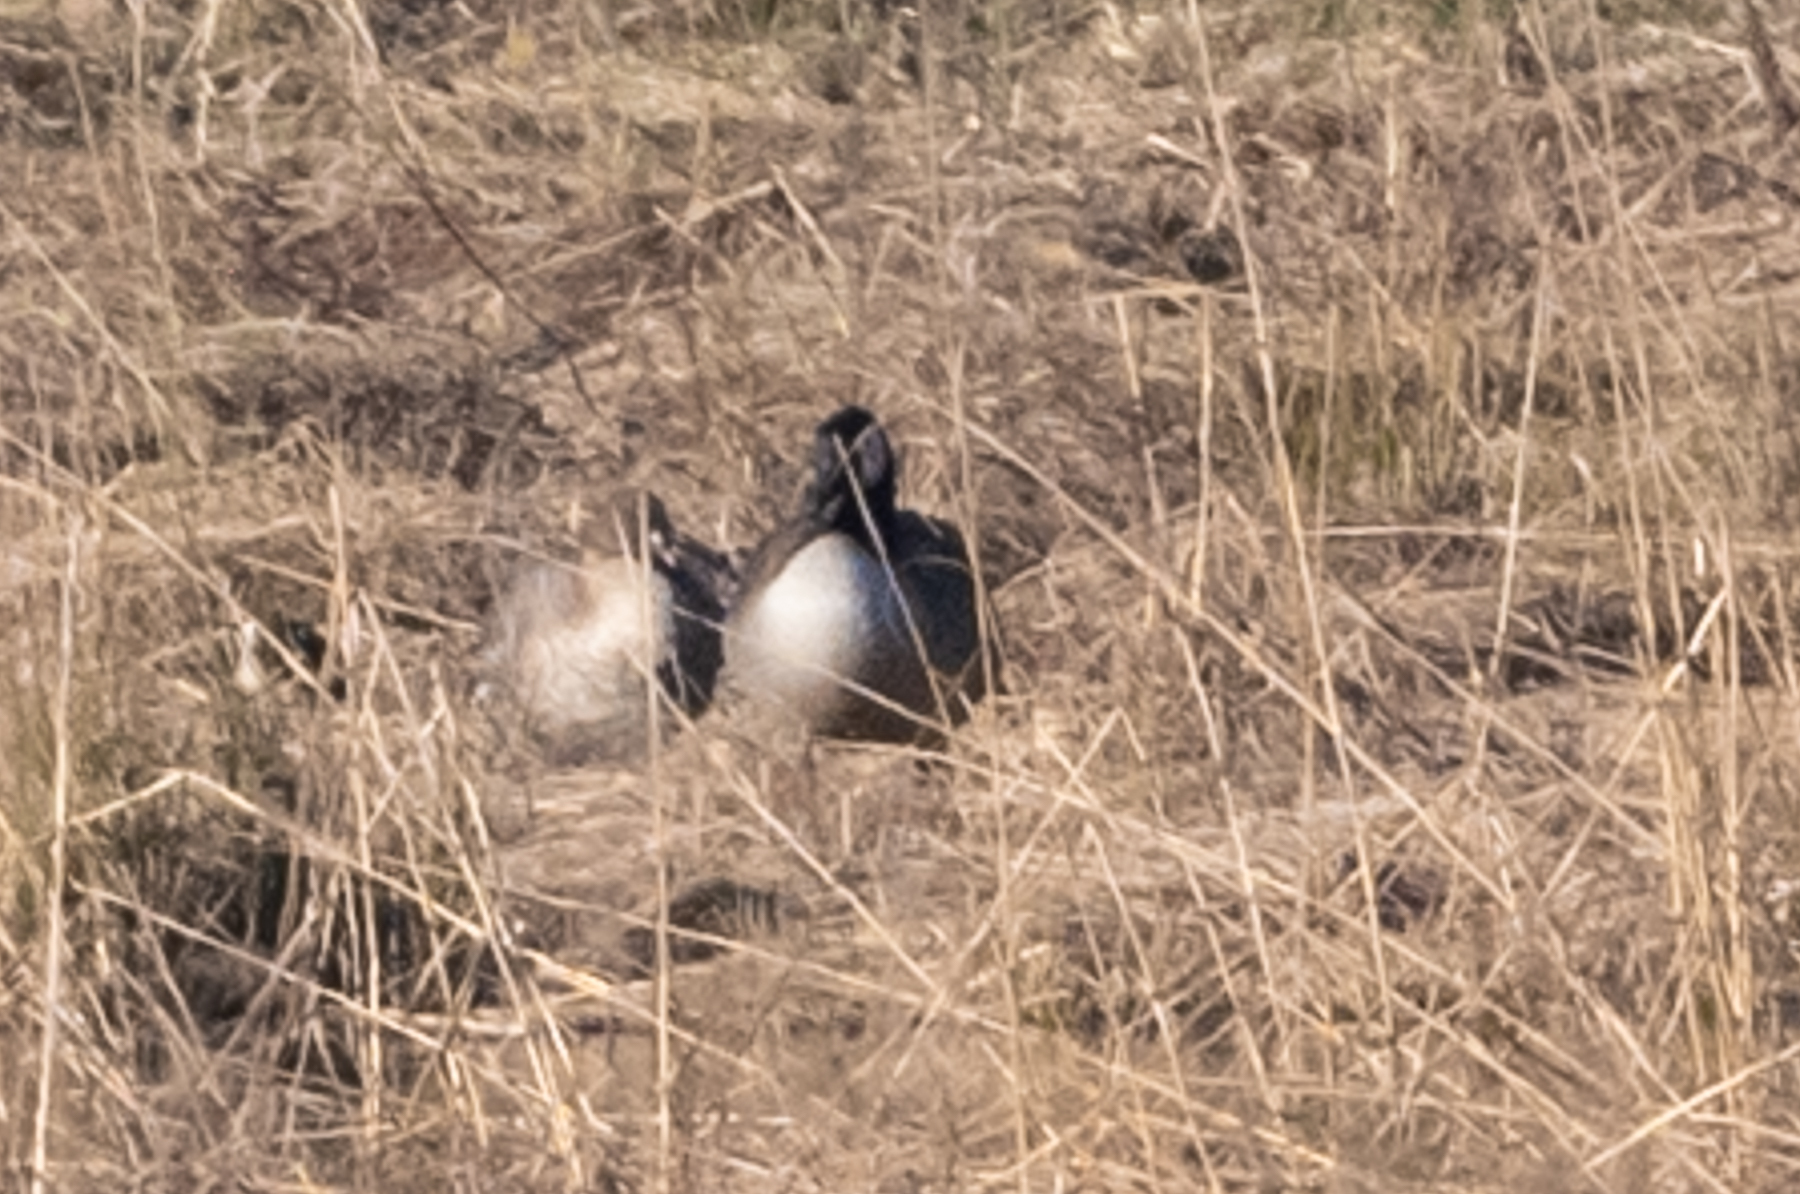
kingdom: Animalia
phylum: Chordata
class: Aves
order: Anseriformes
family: Anatidae
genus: Anser
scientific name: Anser brachyrhynchus
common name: Pink-footed goose
